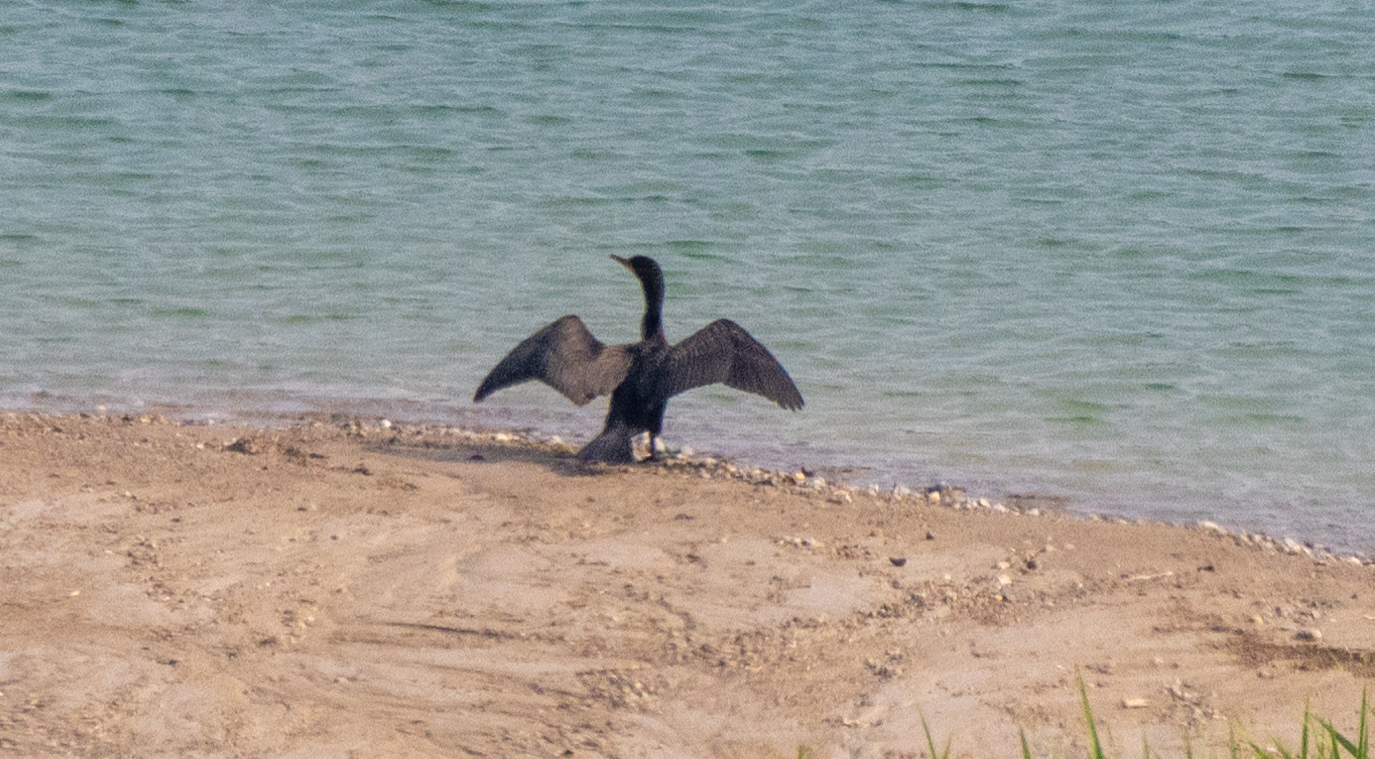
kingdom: Animalia
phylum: Chordata
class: Aves
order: Suliformes
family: Phalacrocoracidae
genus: Phalacrocorax
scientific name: Phalacrocorax auritus
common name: Double-crested cormorant
